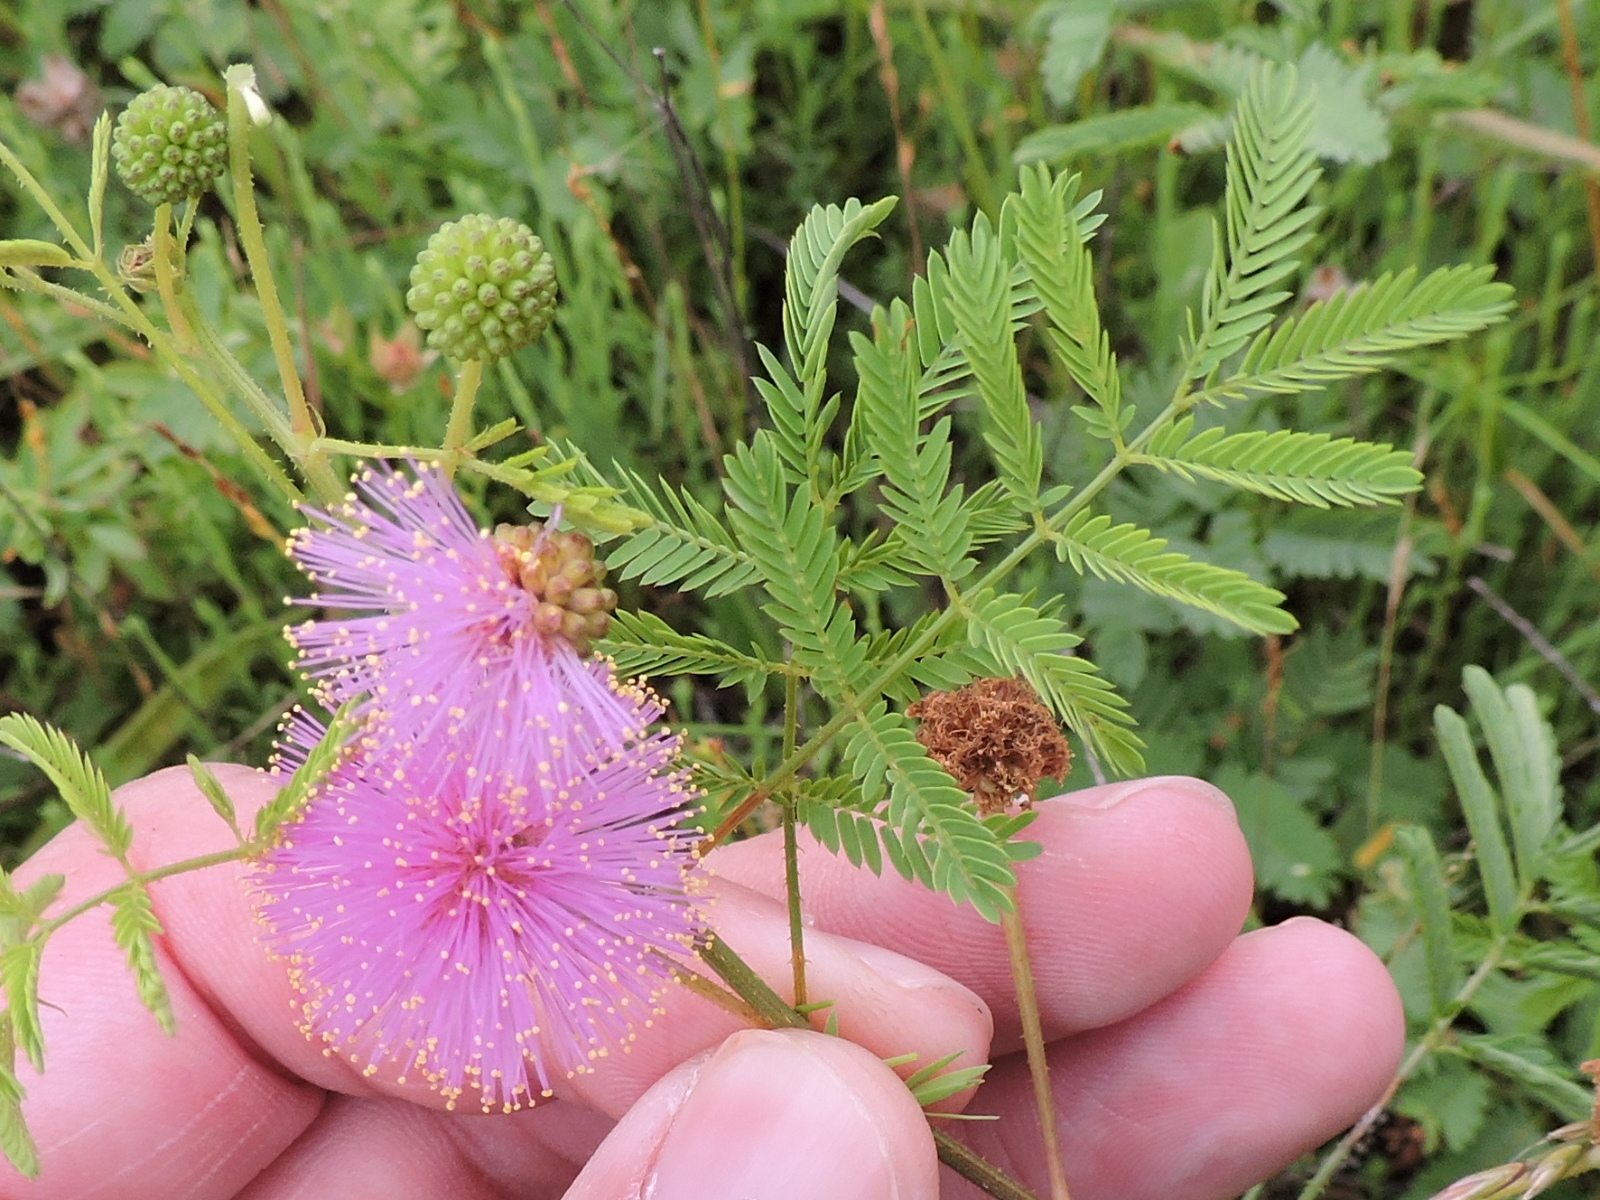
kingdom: Plantae
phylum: Tracheophyta
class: Magnoliopsida
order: Fabales
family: Fabaceae
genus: Mimosa
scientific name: Mimosa quadrivalvis
